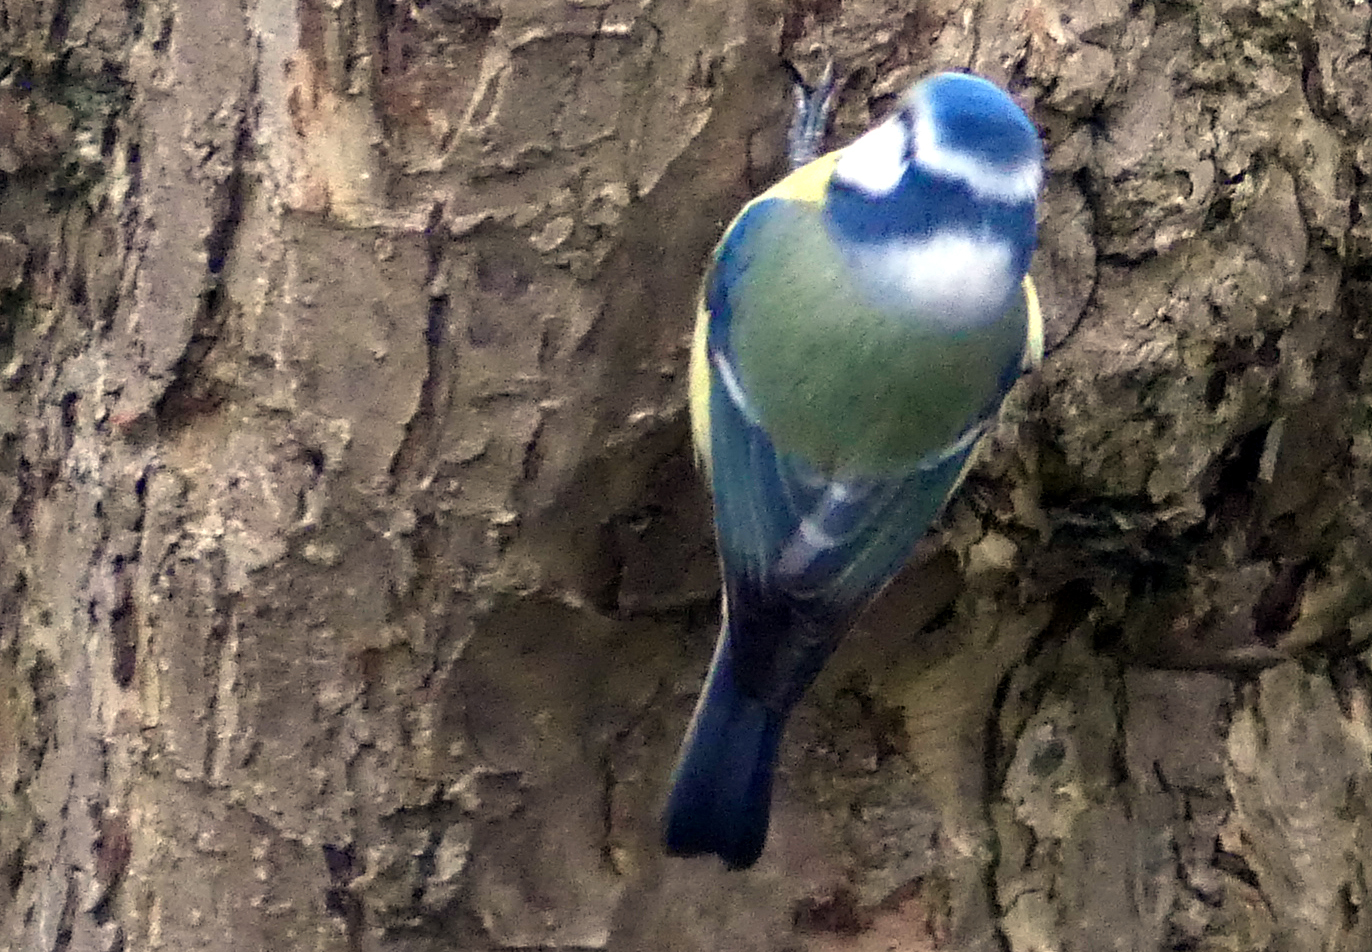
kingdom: Animalia
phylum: Chordata
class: Aves
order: Passeriformes
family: Paridae
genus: Cyanistes
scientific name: Cyanistes caeruleus
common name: Eurasian blue tit
